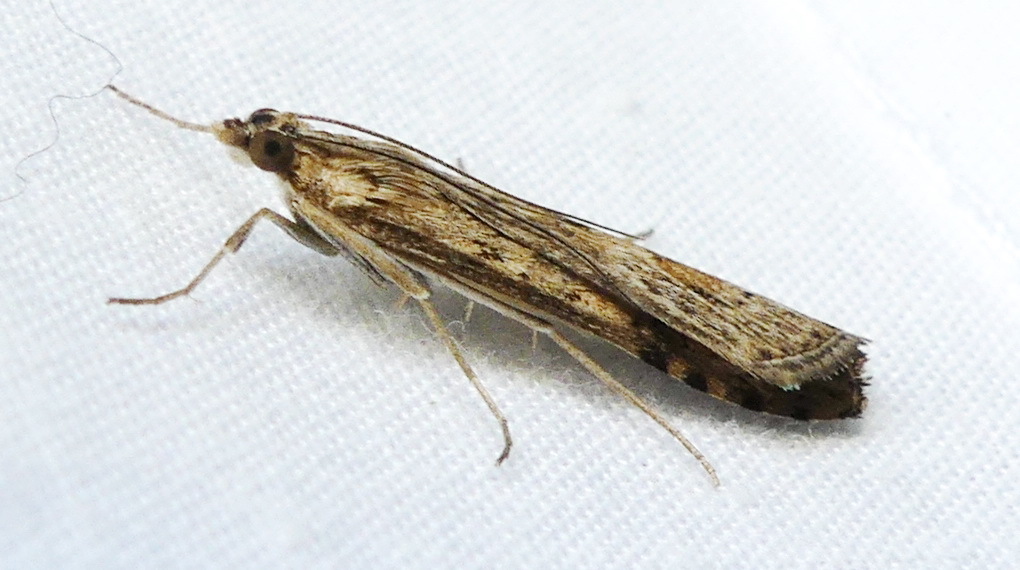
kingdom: Animalia
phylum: Arthropoda
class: Insecta
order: Lepidoptera
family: Crambidae
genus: Nomophila
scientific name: Nomophila nearctica
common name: American rush veneer
